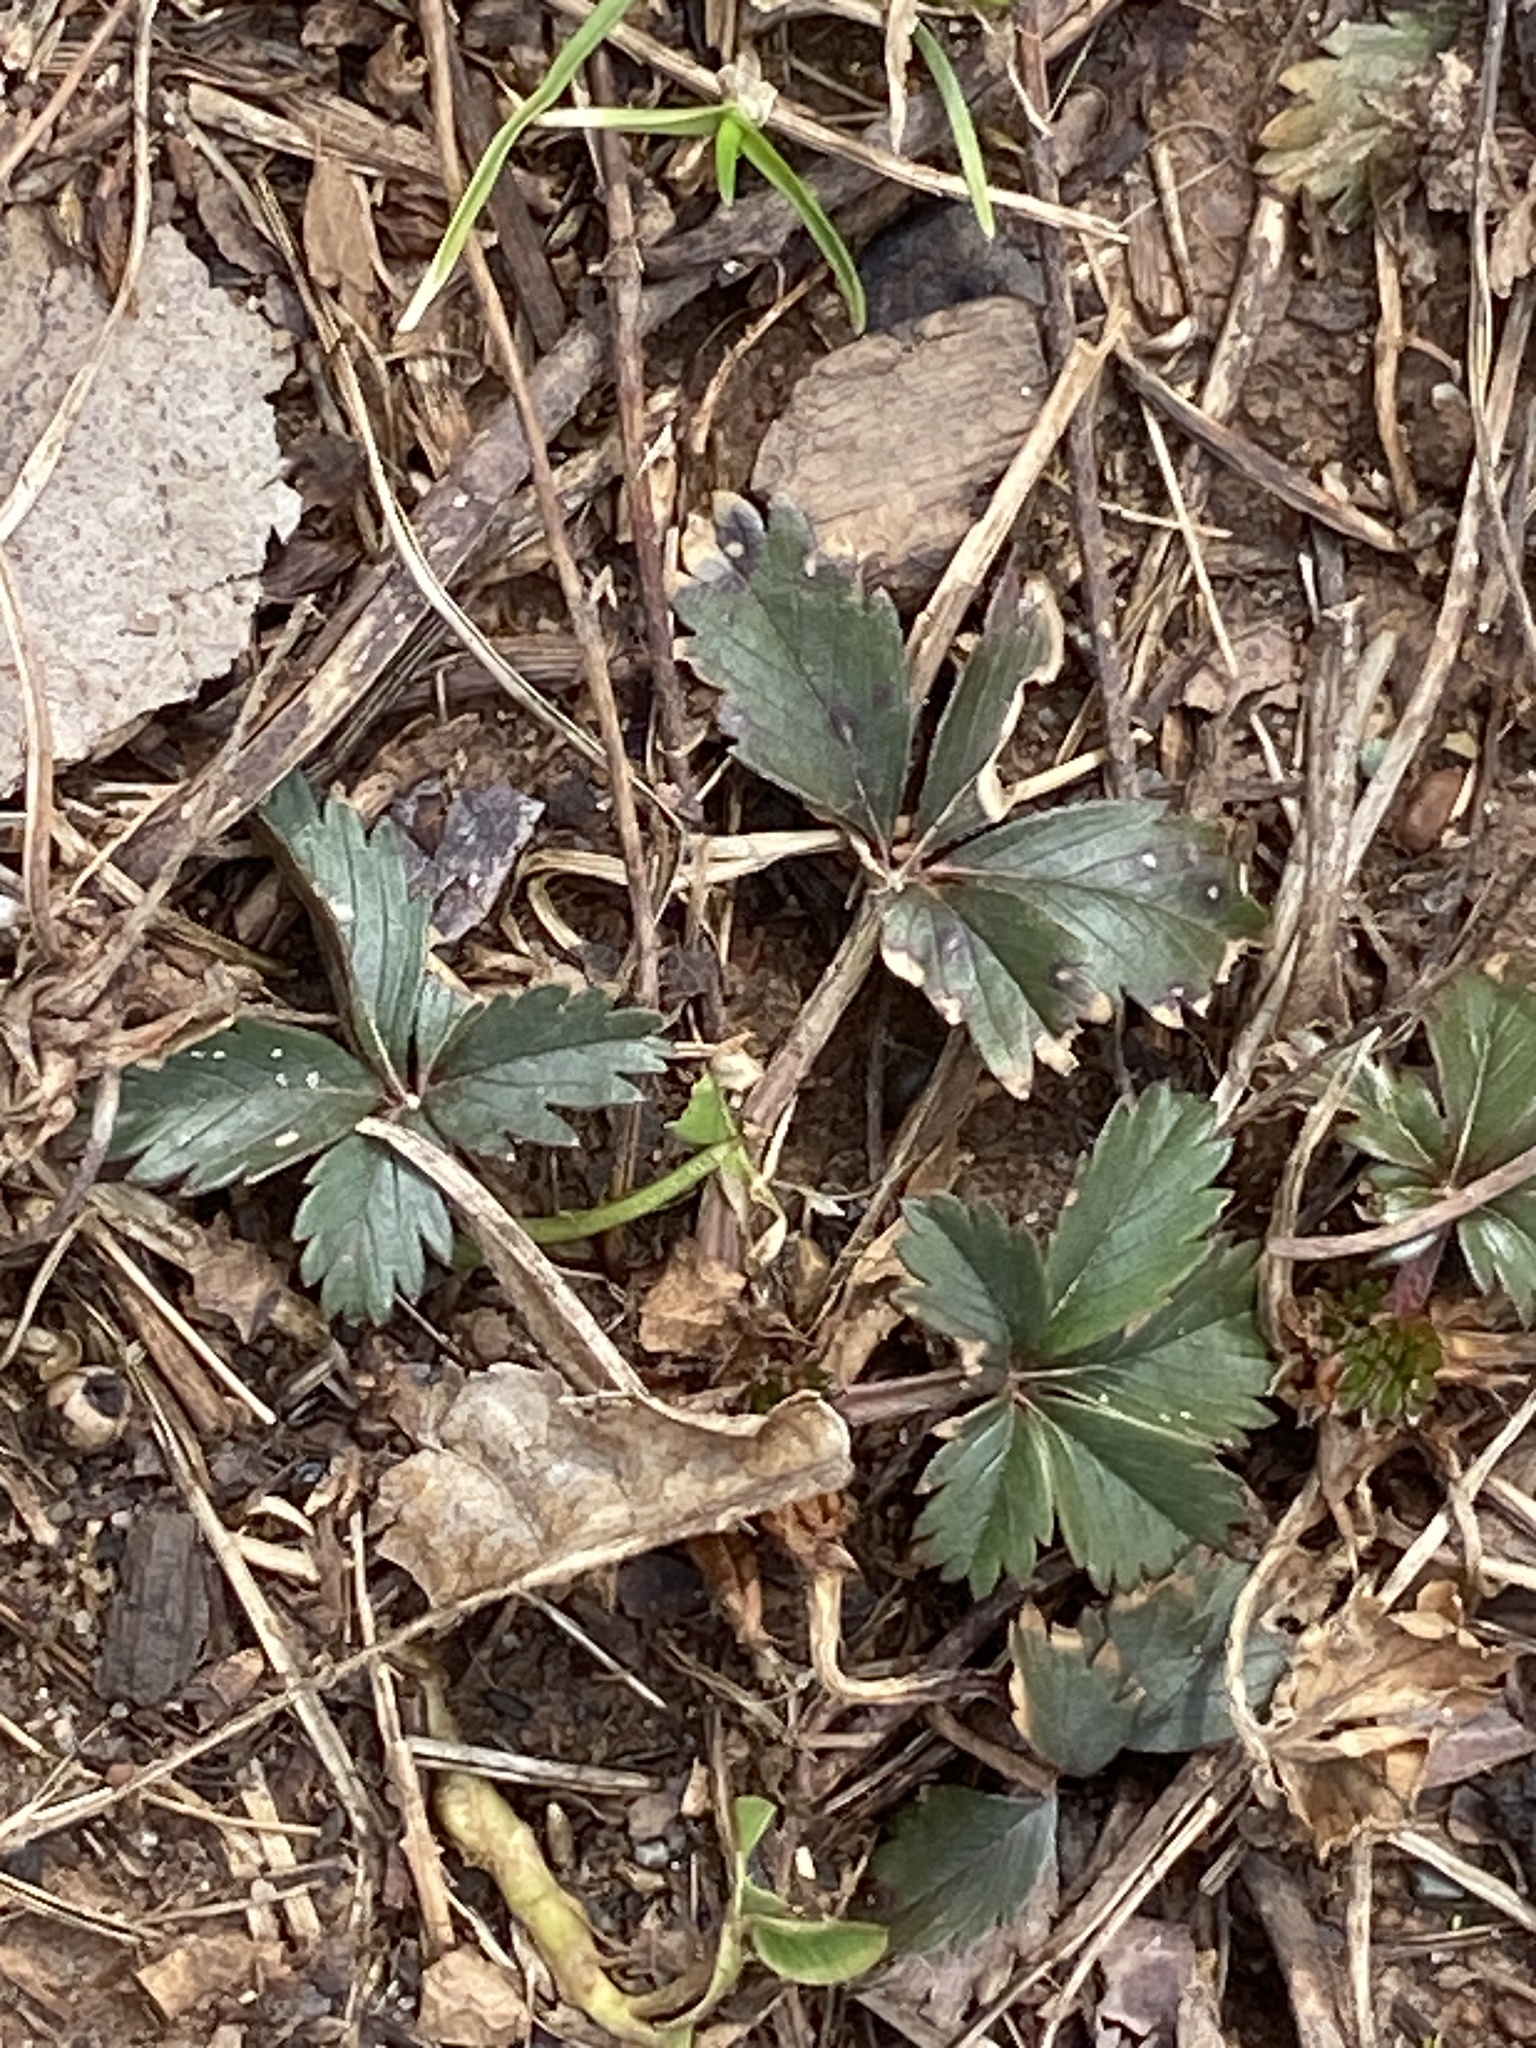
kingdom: Plantae
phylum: Tracheophyta
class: Magnoliopsida
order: Rosales
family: Rosaceae
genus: Potentilla
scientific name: Potentilla canadensis
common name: Canada cinquefoil
